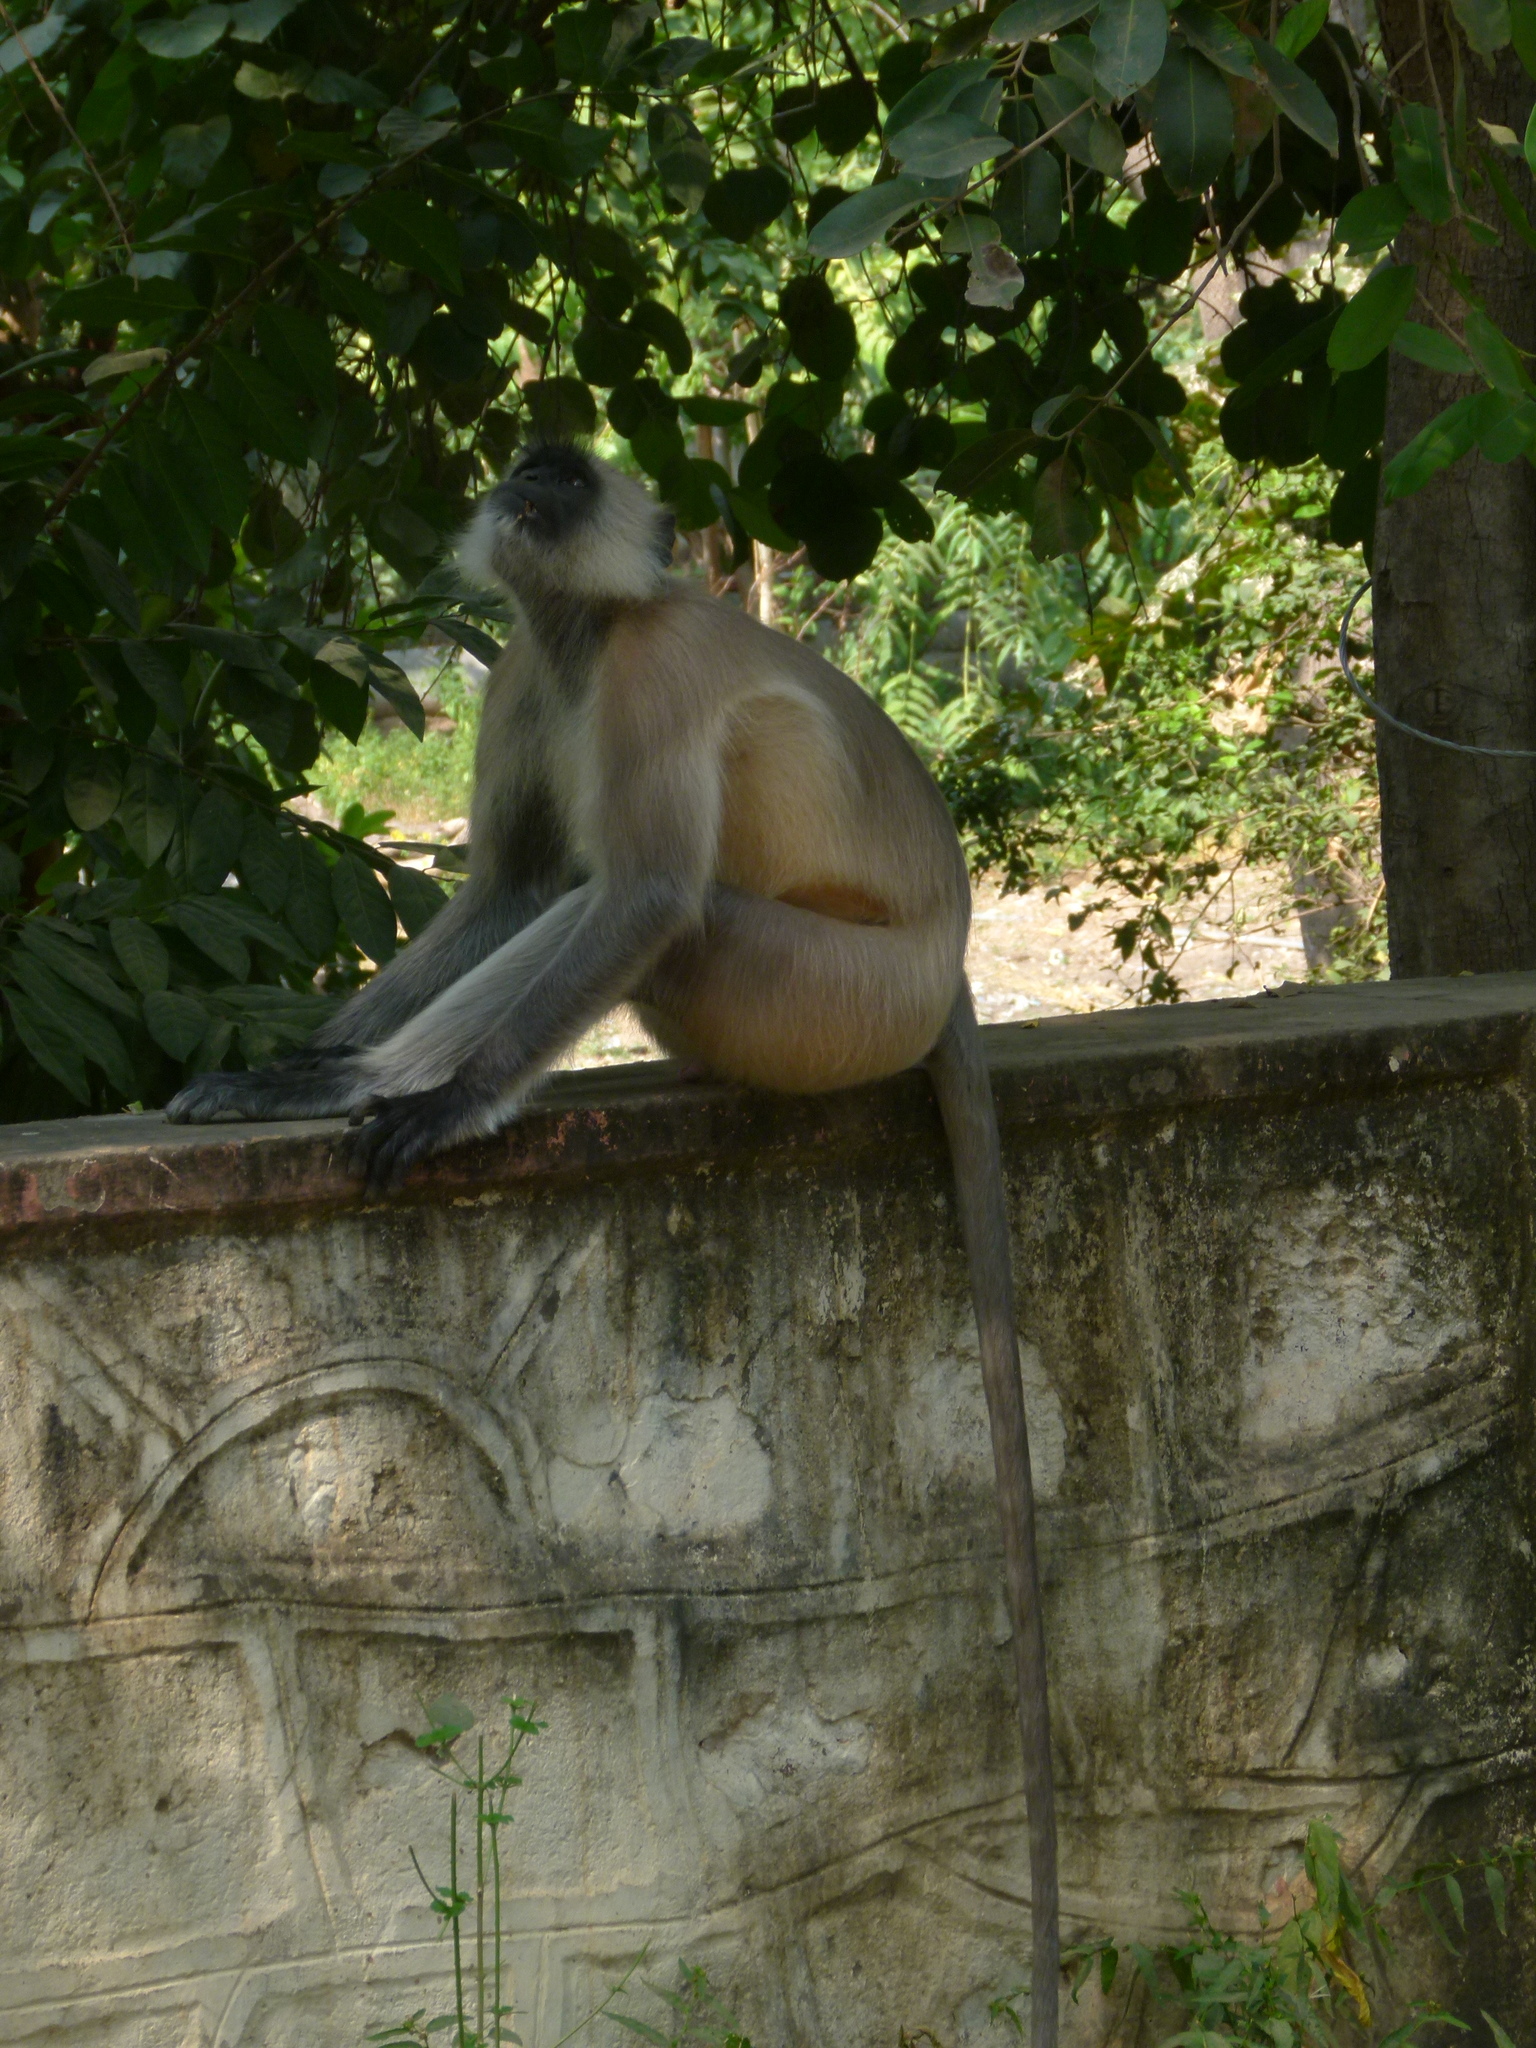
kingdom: Animalia
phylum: Chordata
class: Mammalia
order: Primates
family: Cercopithecidae
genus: Semnopithecus
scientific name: Semnopithecus entellus
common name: Northern plains gray langur
